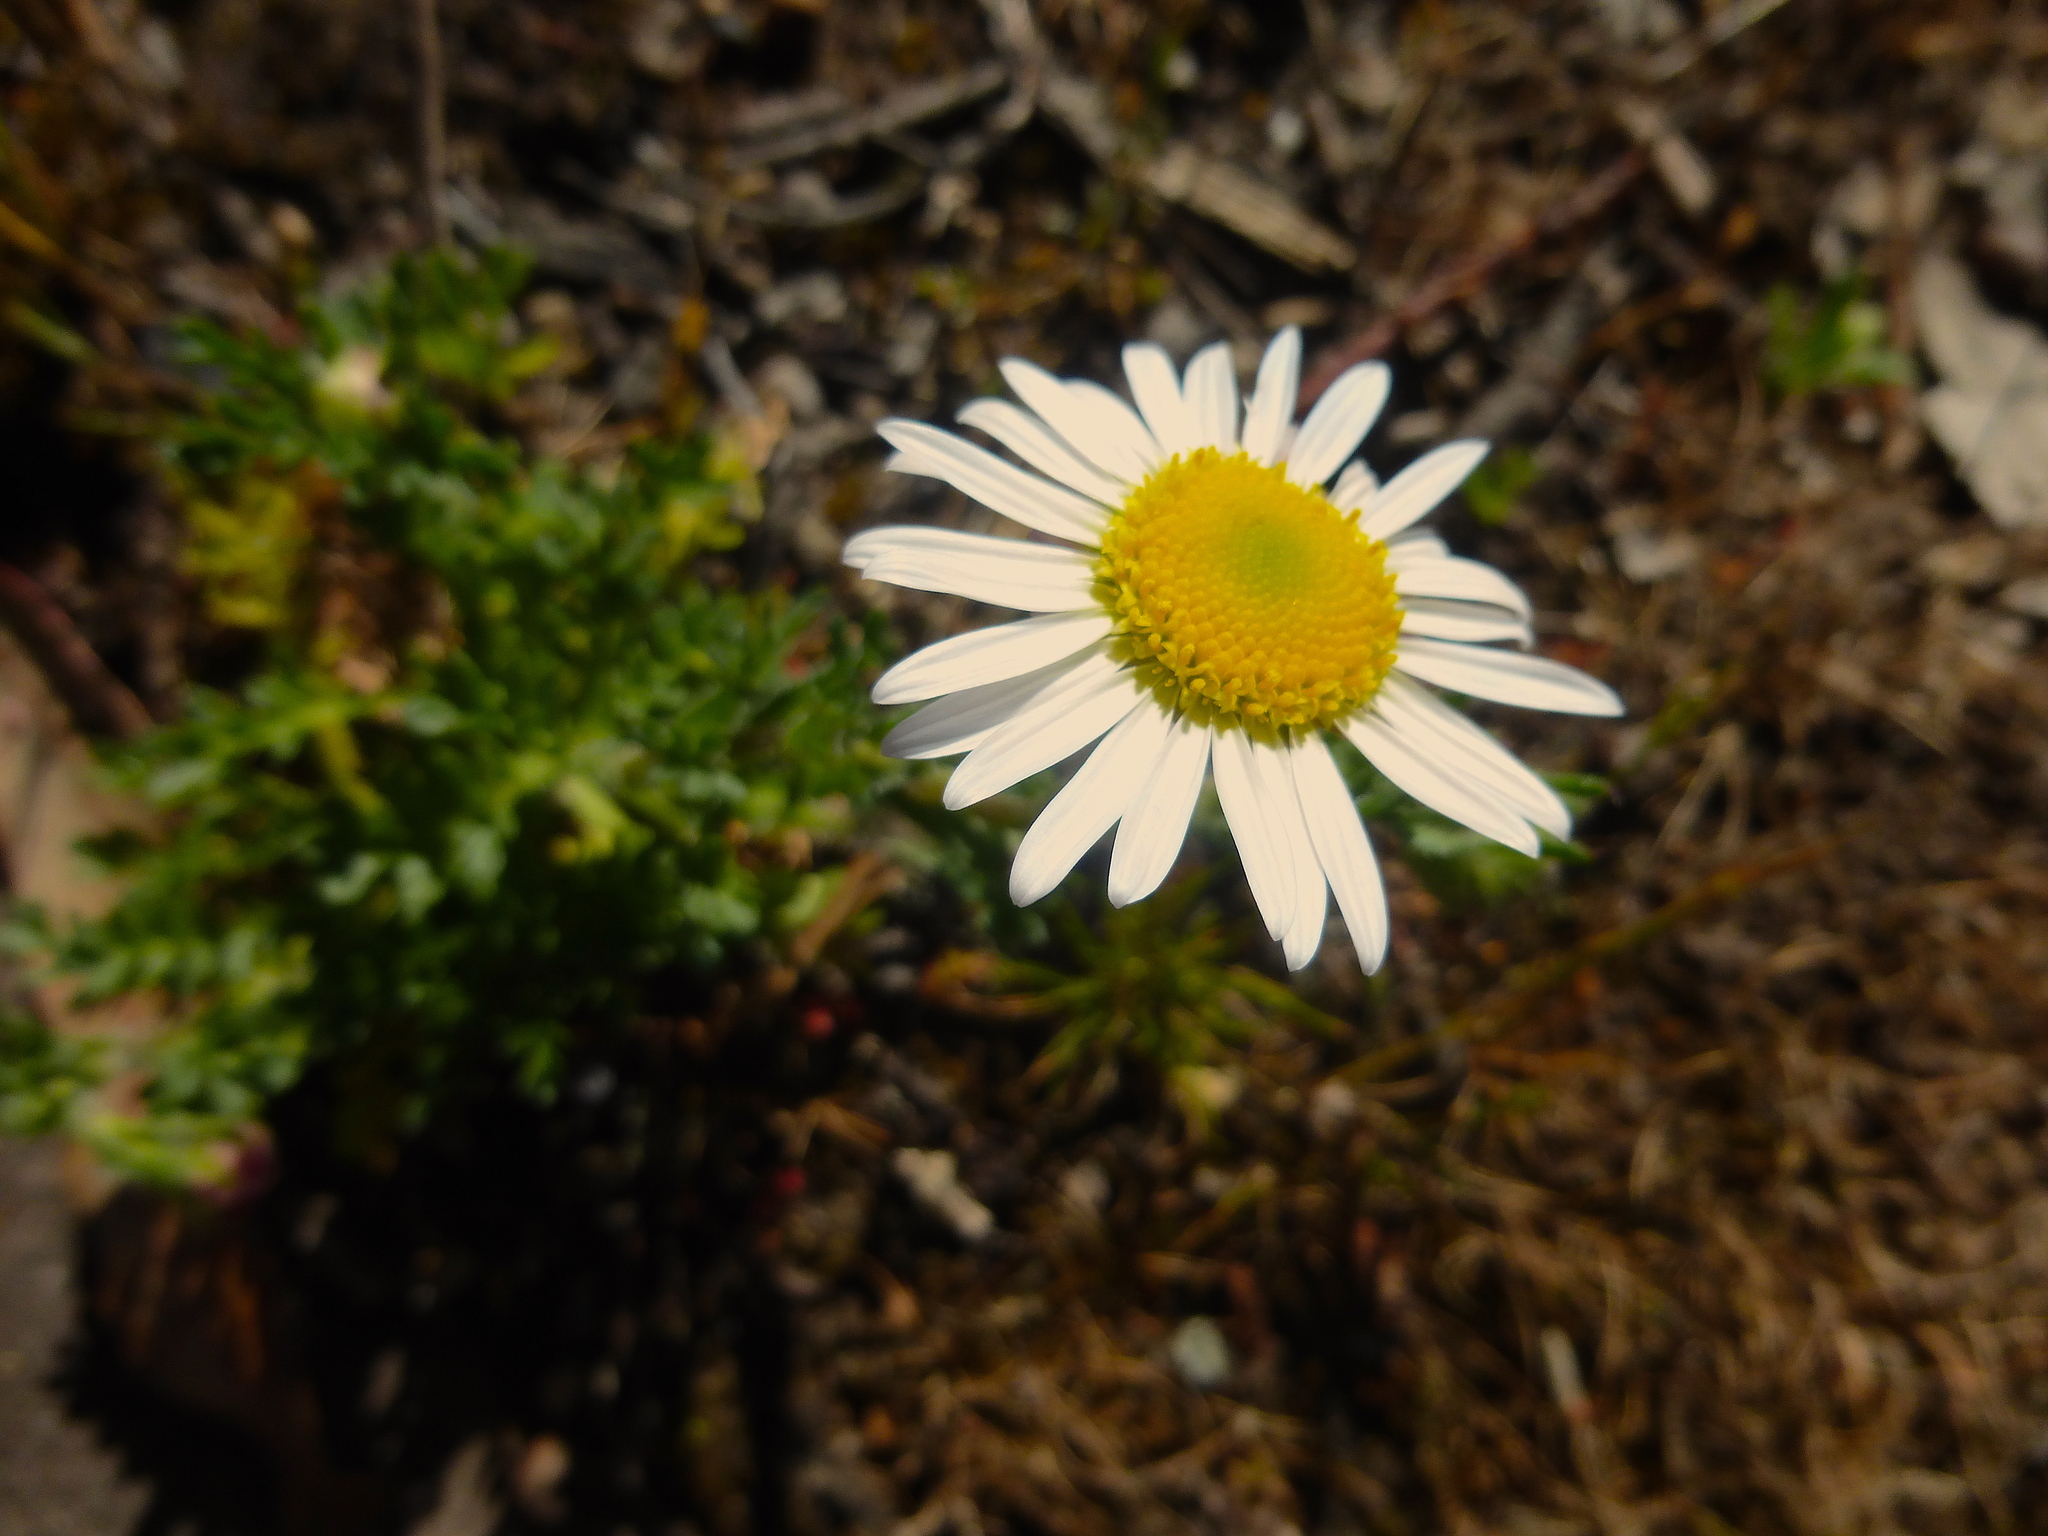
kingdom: Plantae
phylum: Tracheophyta
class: Magnoliopsida
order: Asterales
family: Asteraceae
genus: Brachyscome
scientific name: Brachyscome diversifolia
